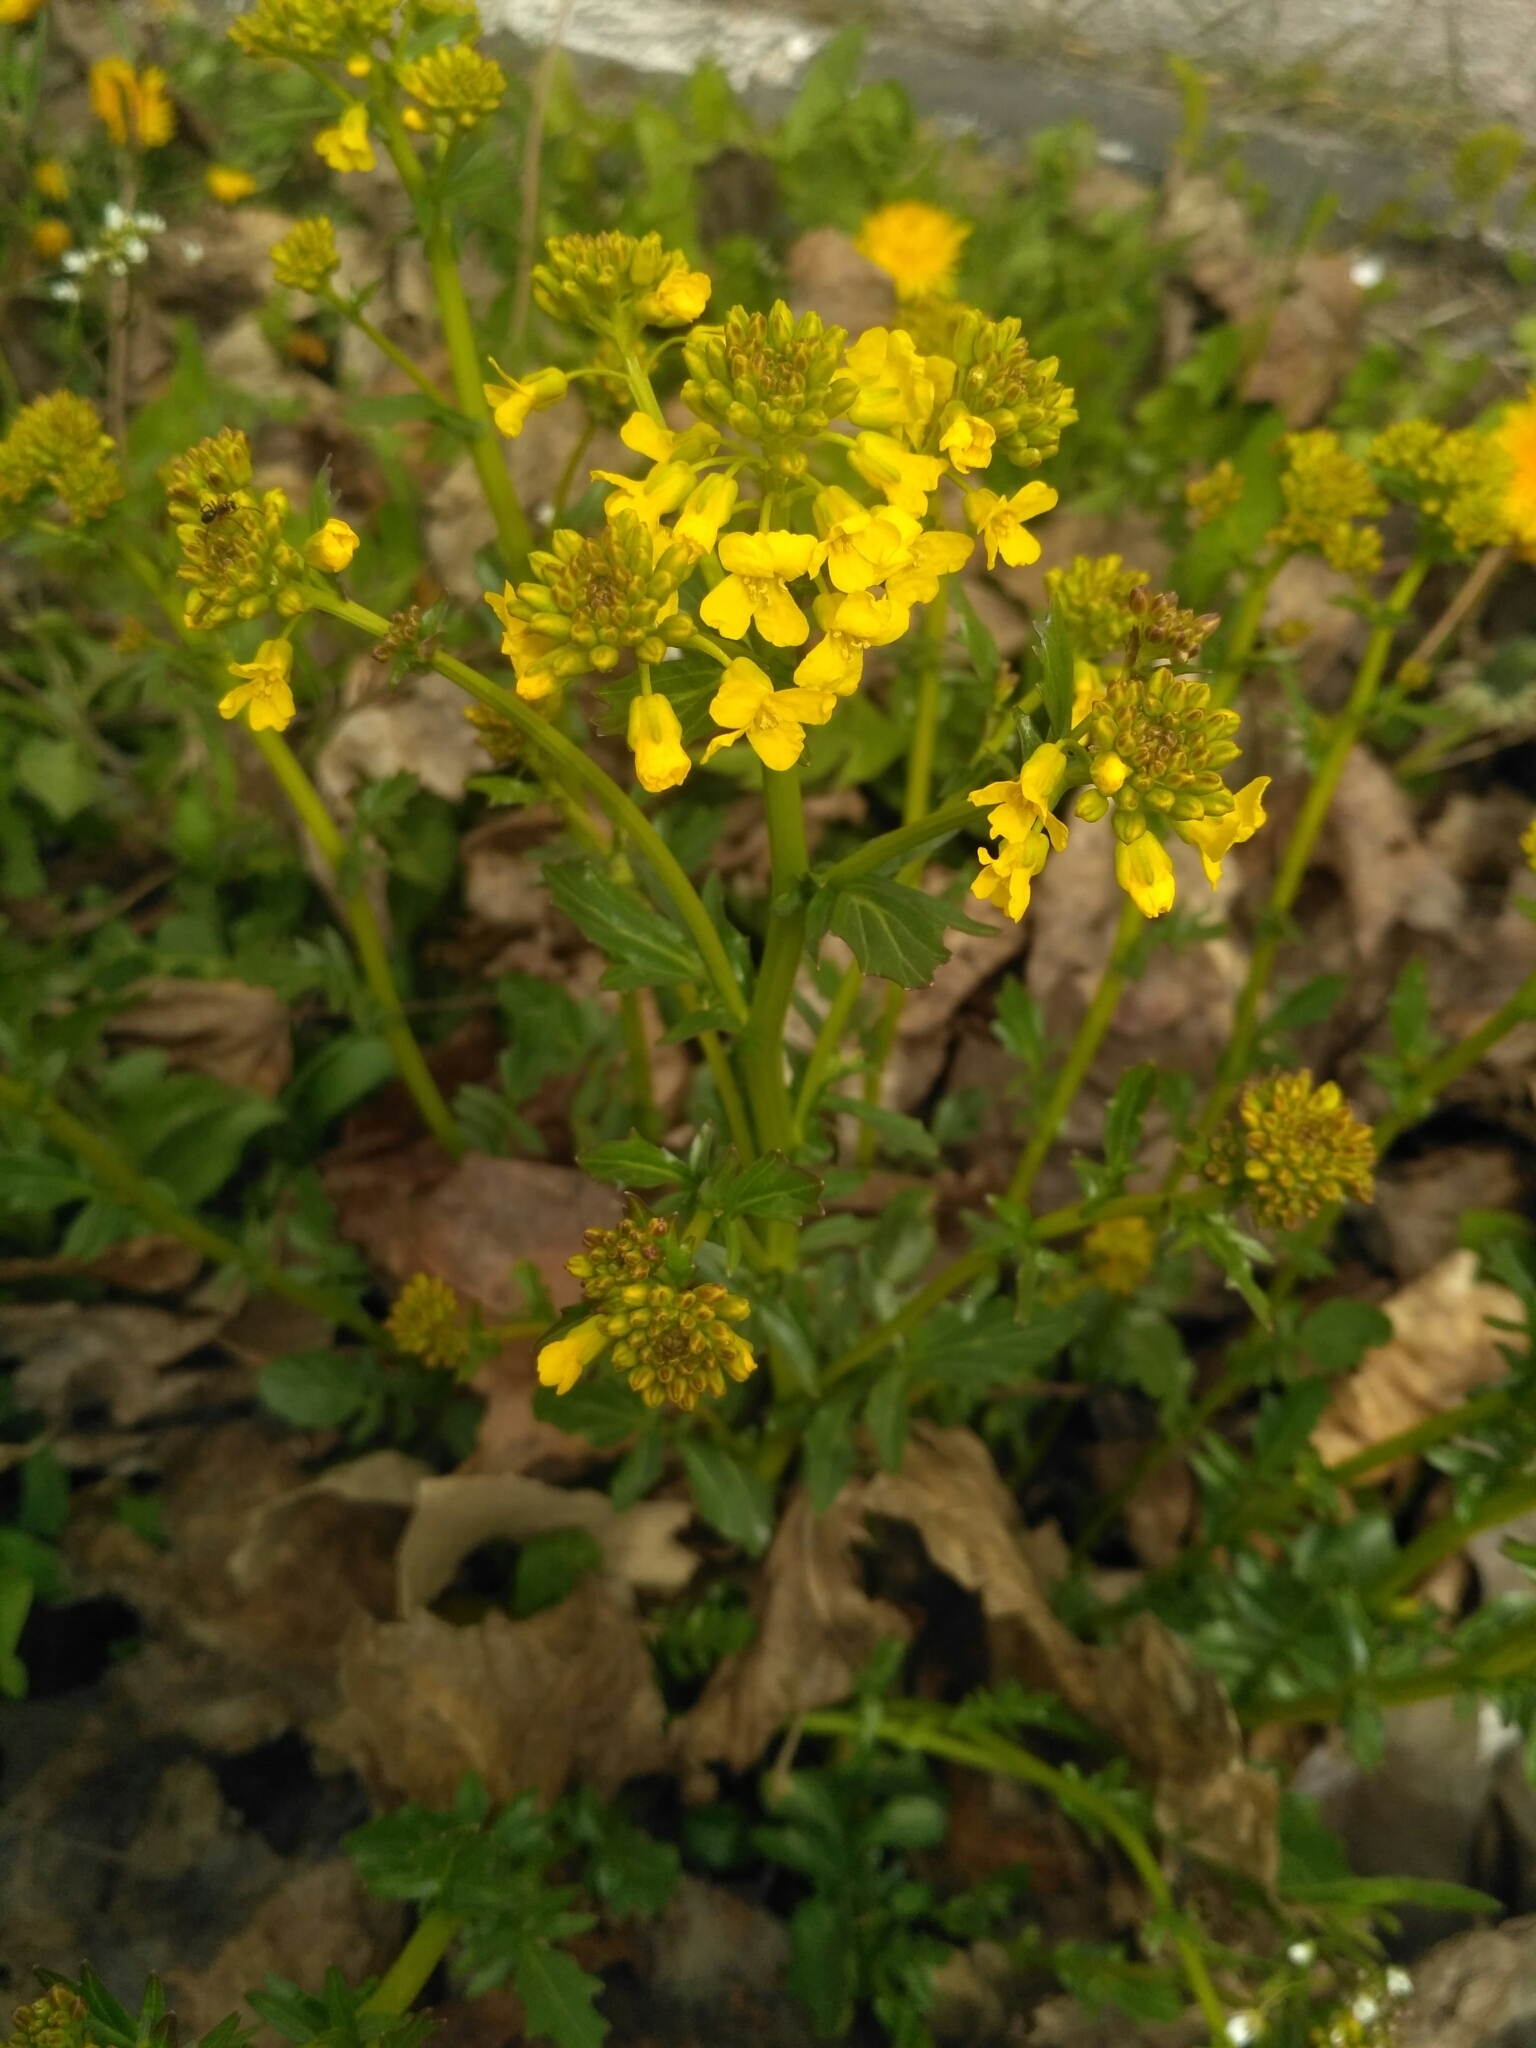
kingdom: Plantae
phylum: Tracheophyta
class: Magnoliopsida
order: Brassicales
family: Brassicaceae
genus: Barbarea
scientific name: Barbarea vulgaris
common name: Cressy-greens
